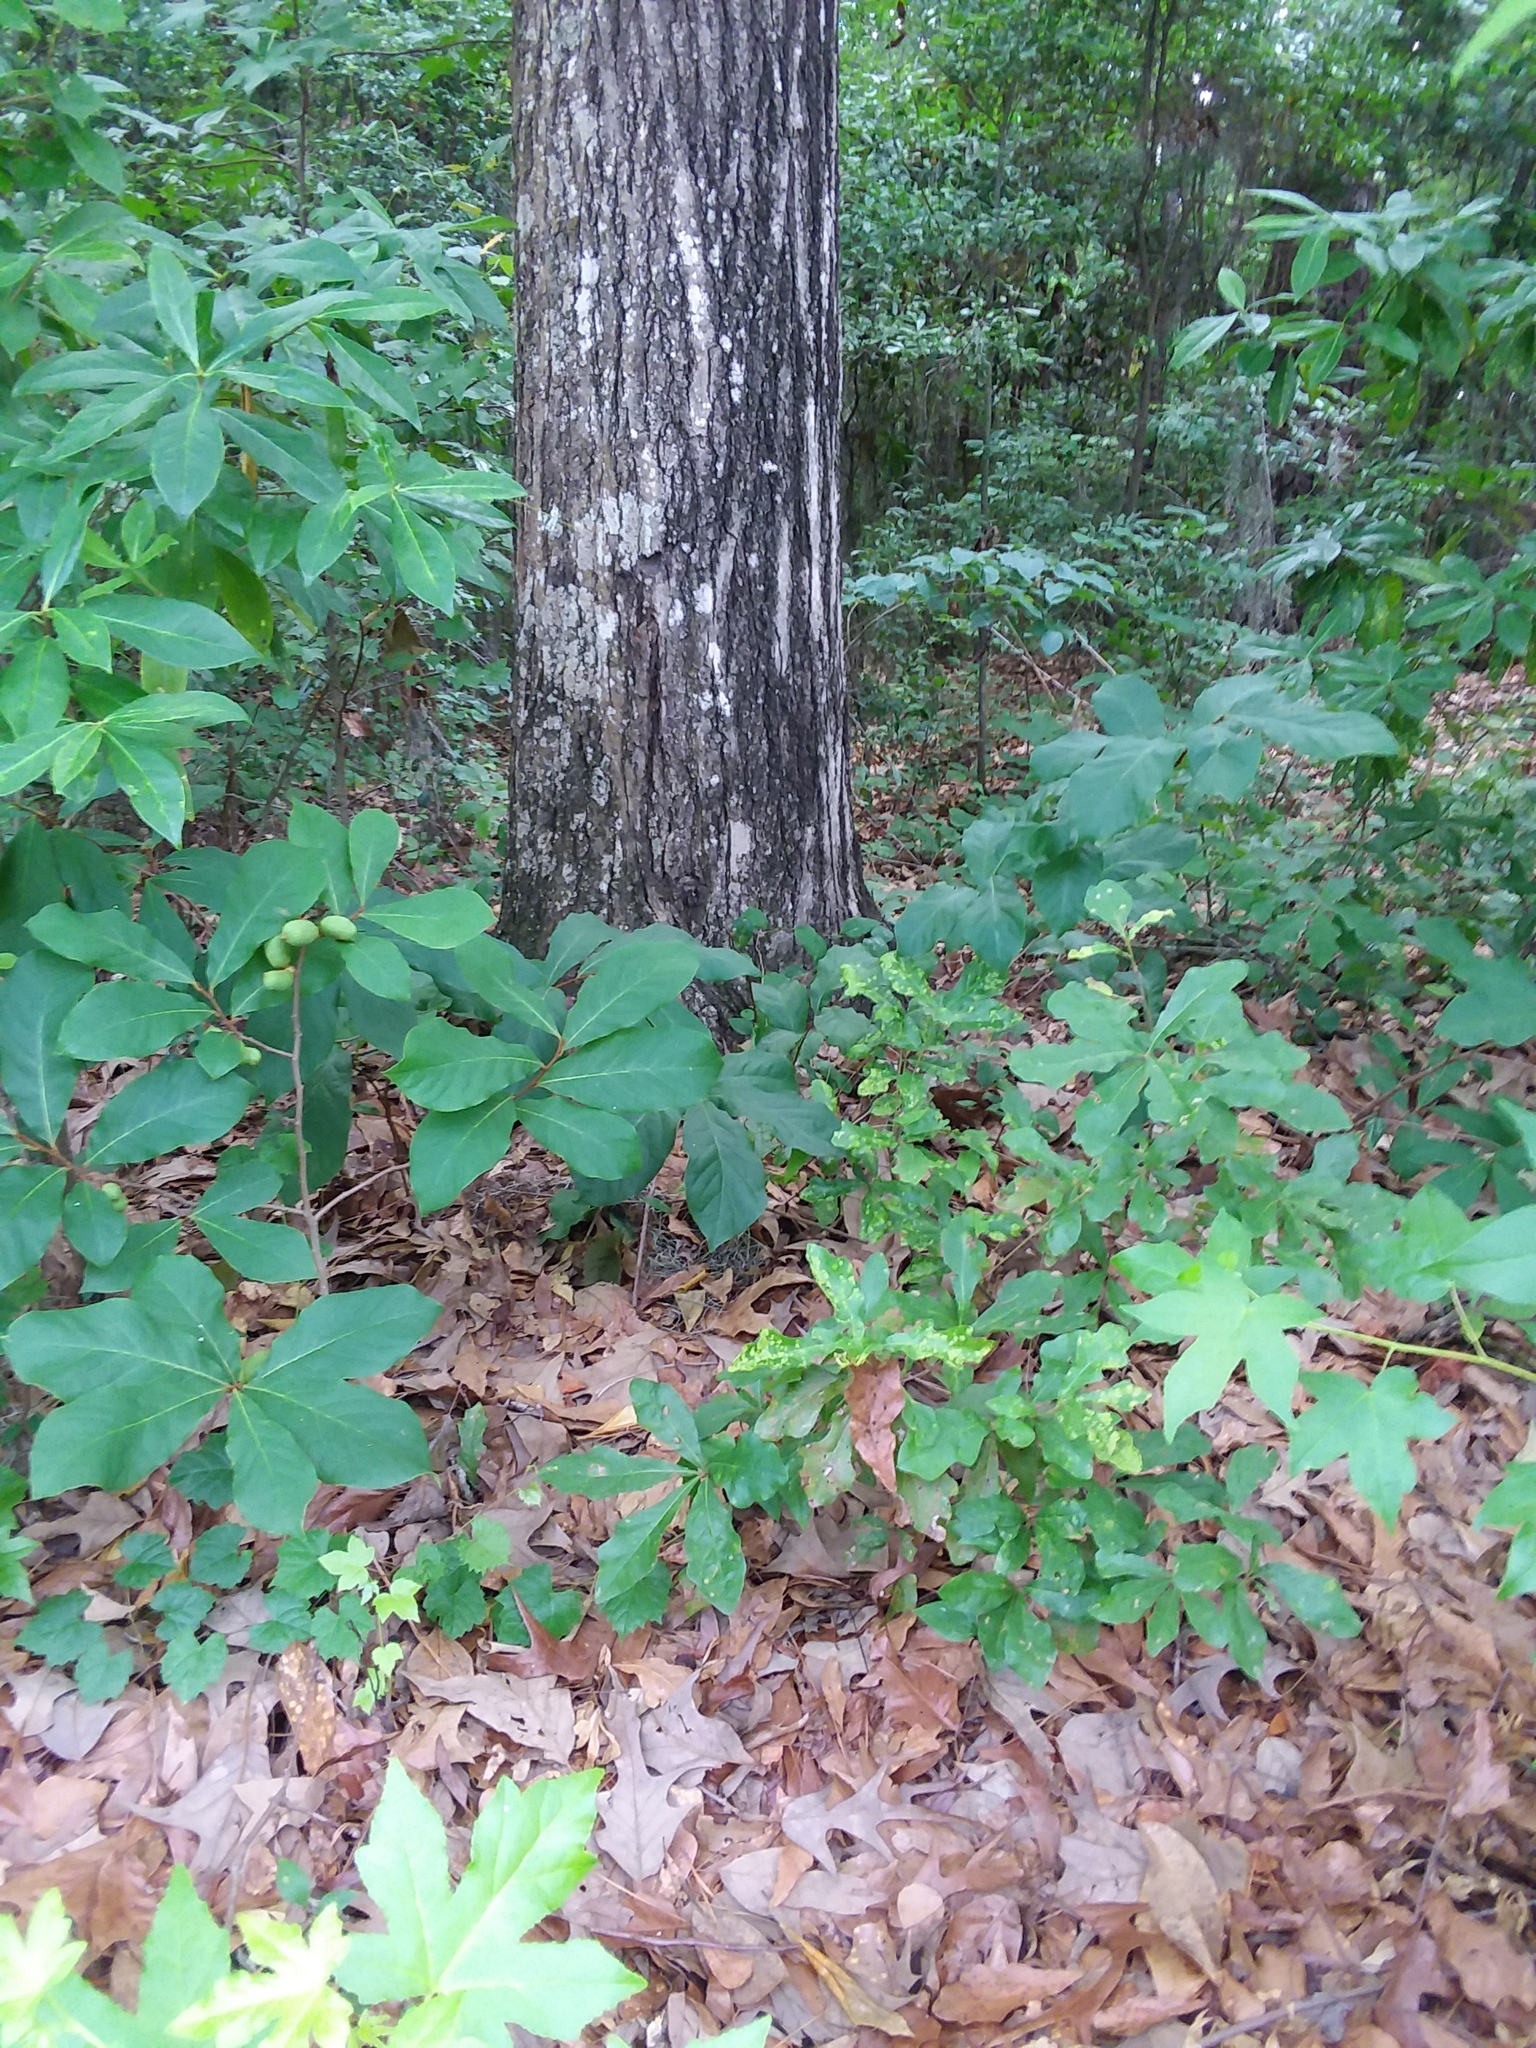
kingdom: Plantae
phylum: Tracheophyta
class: Magnoliopsida
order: Magnoliales
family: Annonaceae
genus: Asimina
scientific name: Asimina parviflora
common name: Dwarf pawpaw
